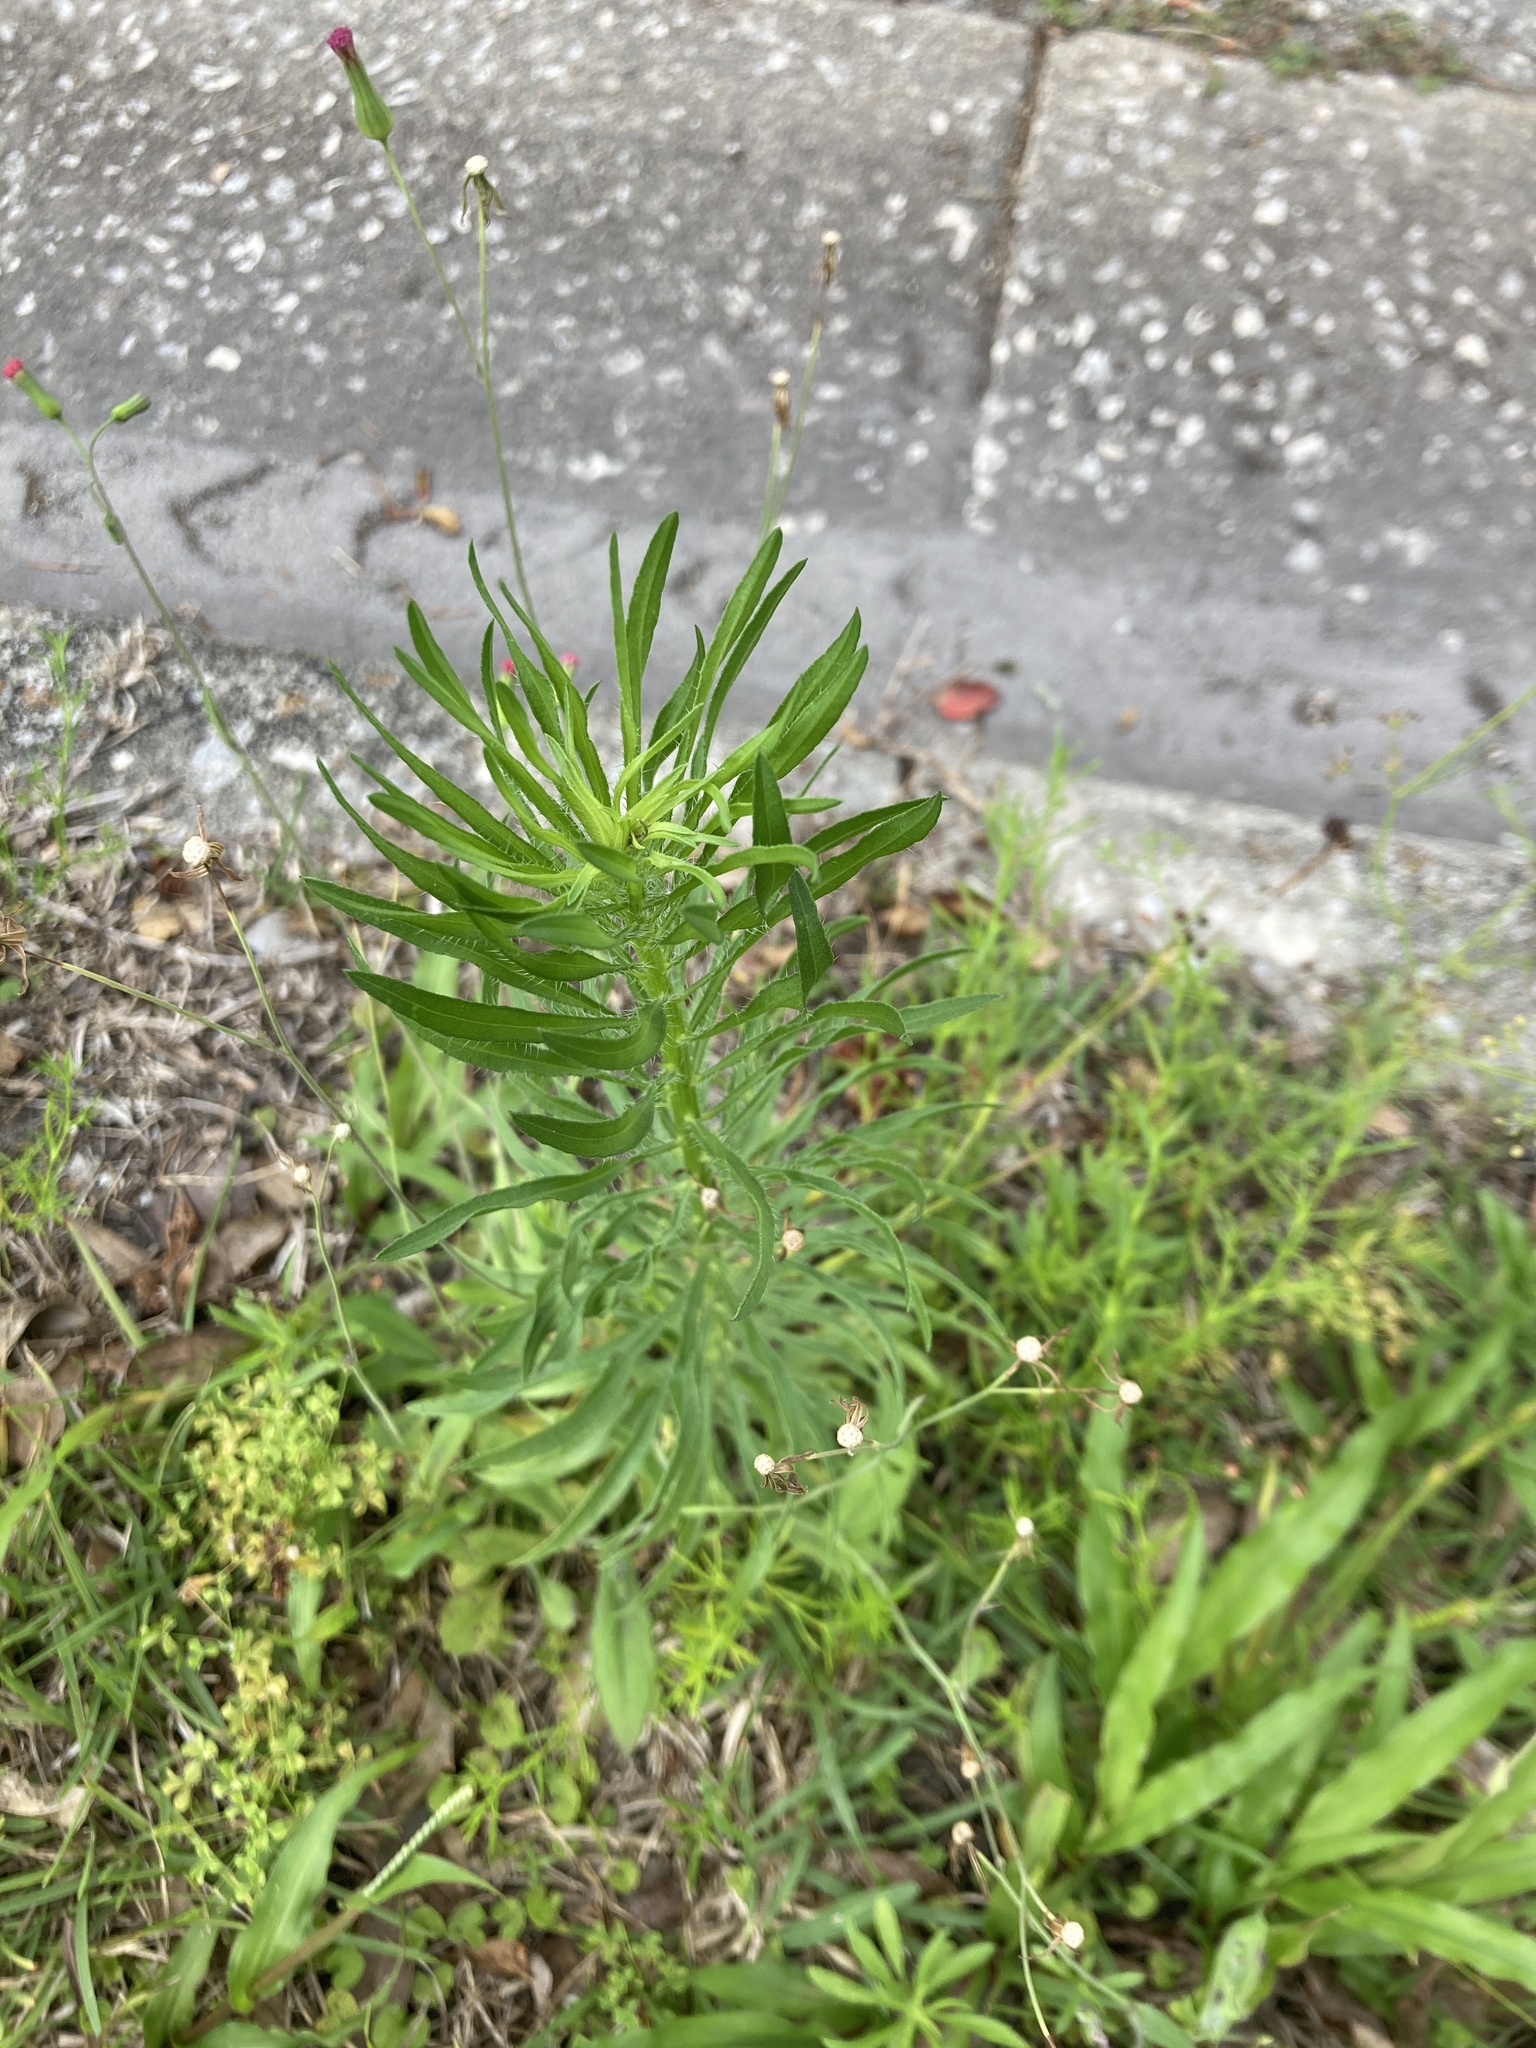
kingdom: Plantae
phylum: Tracheophyta
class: Magnoliopsida
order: Asterales
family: Asteraceae
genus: Erigeron
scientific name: Erigeron canadensis
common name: Canadian fleabane
